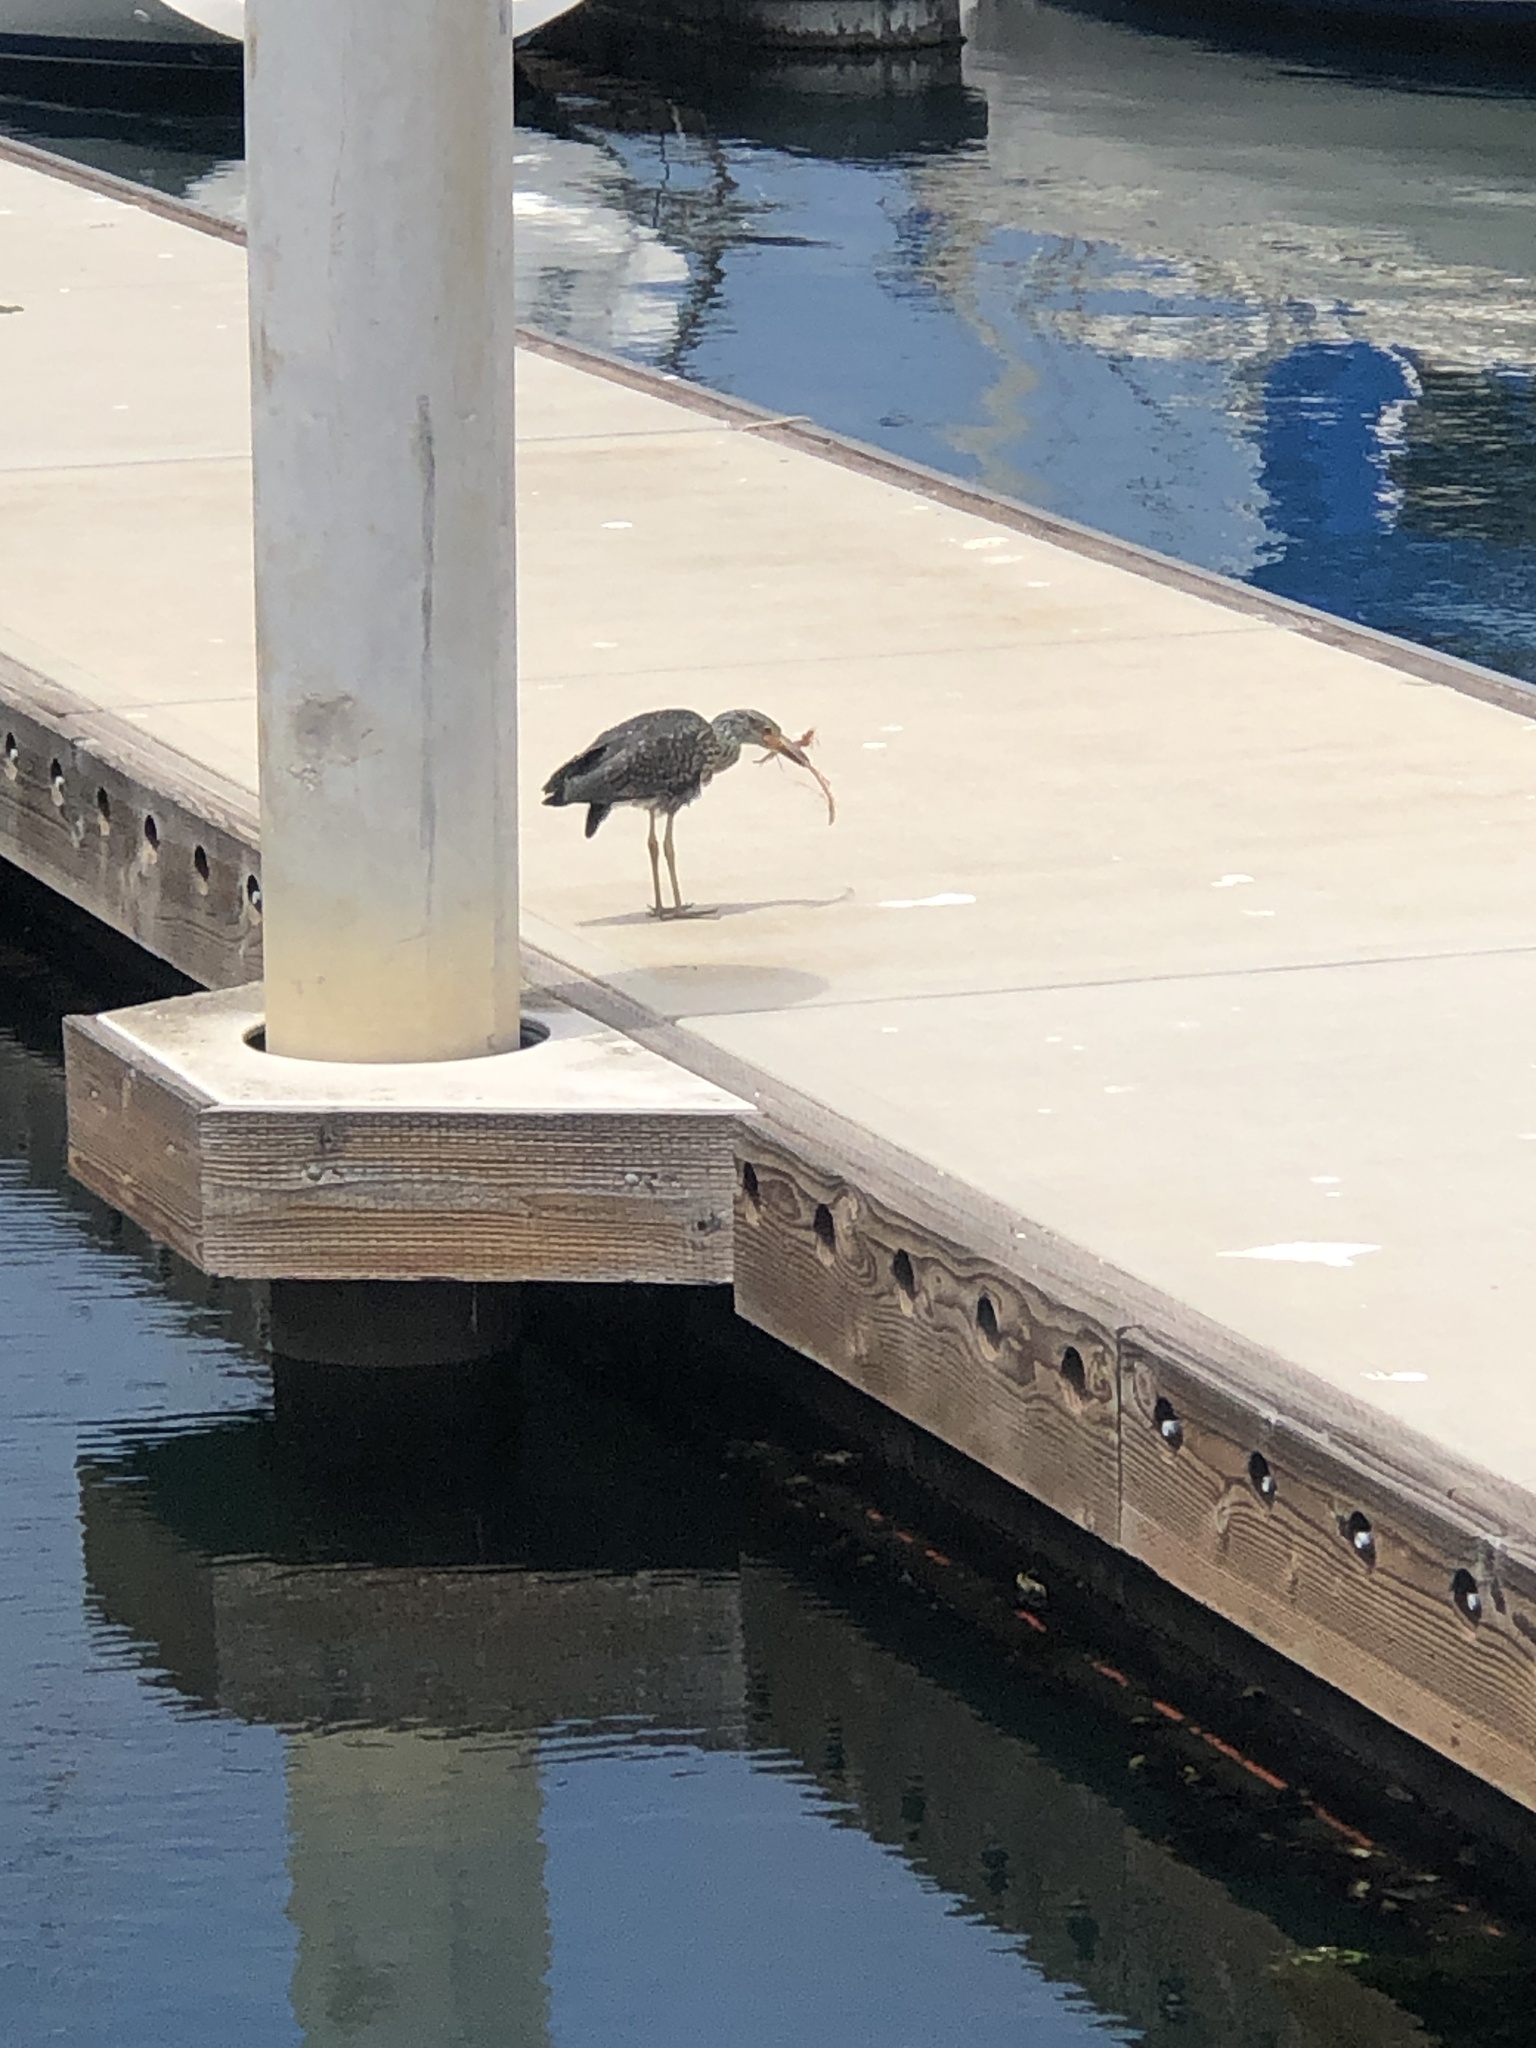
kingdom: Animalia
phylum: Chordata
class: Aves
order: Pelecaniformes
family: Ardeidae
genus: Nyctanassa
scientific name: Nyctanassa violacea
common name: Yellow-crowned night heron
